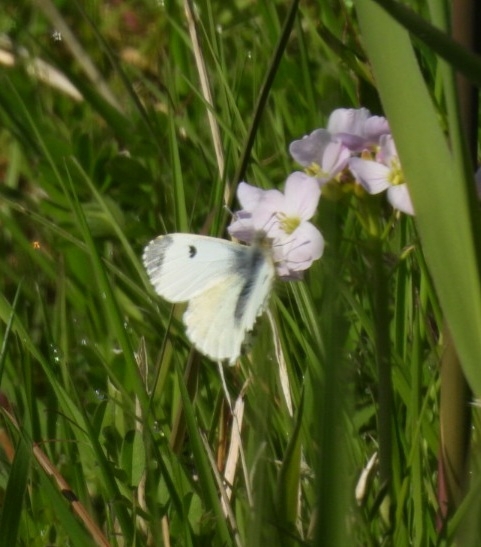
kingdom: Animalia
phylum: Arthropoda
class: Insecta
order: Lepidoptera
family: Pieridae
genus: Anthocharis
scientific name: Anthocharis cardamines
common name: Orange-tip
